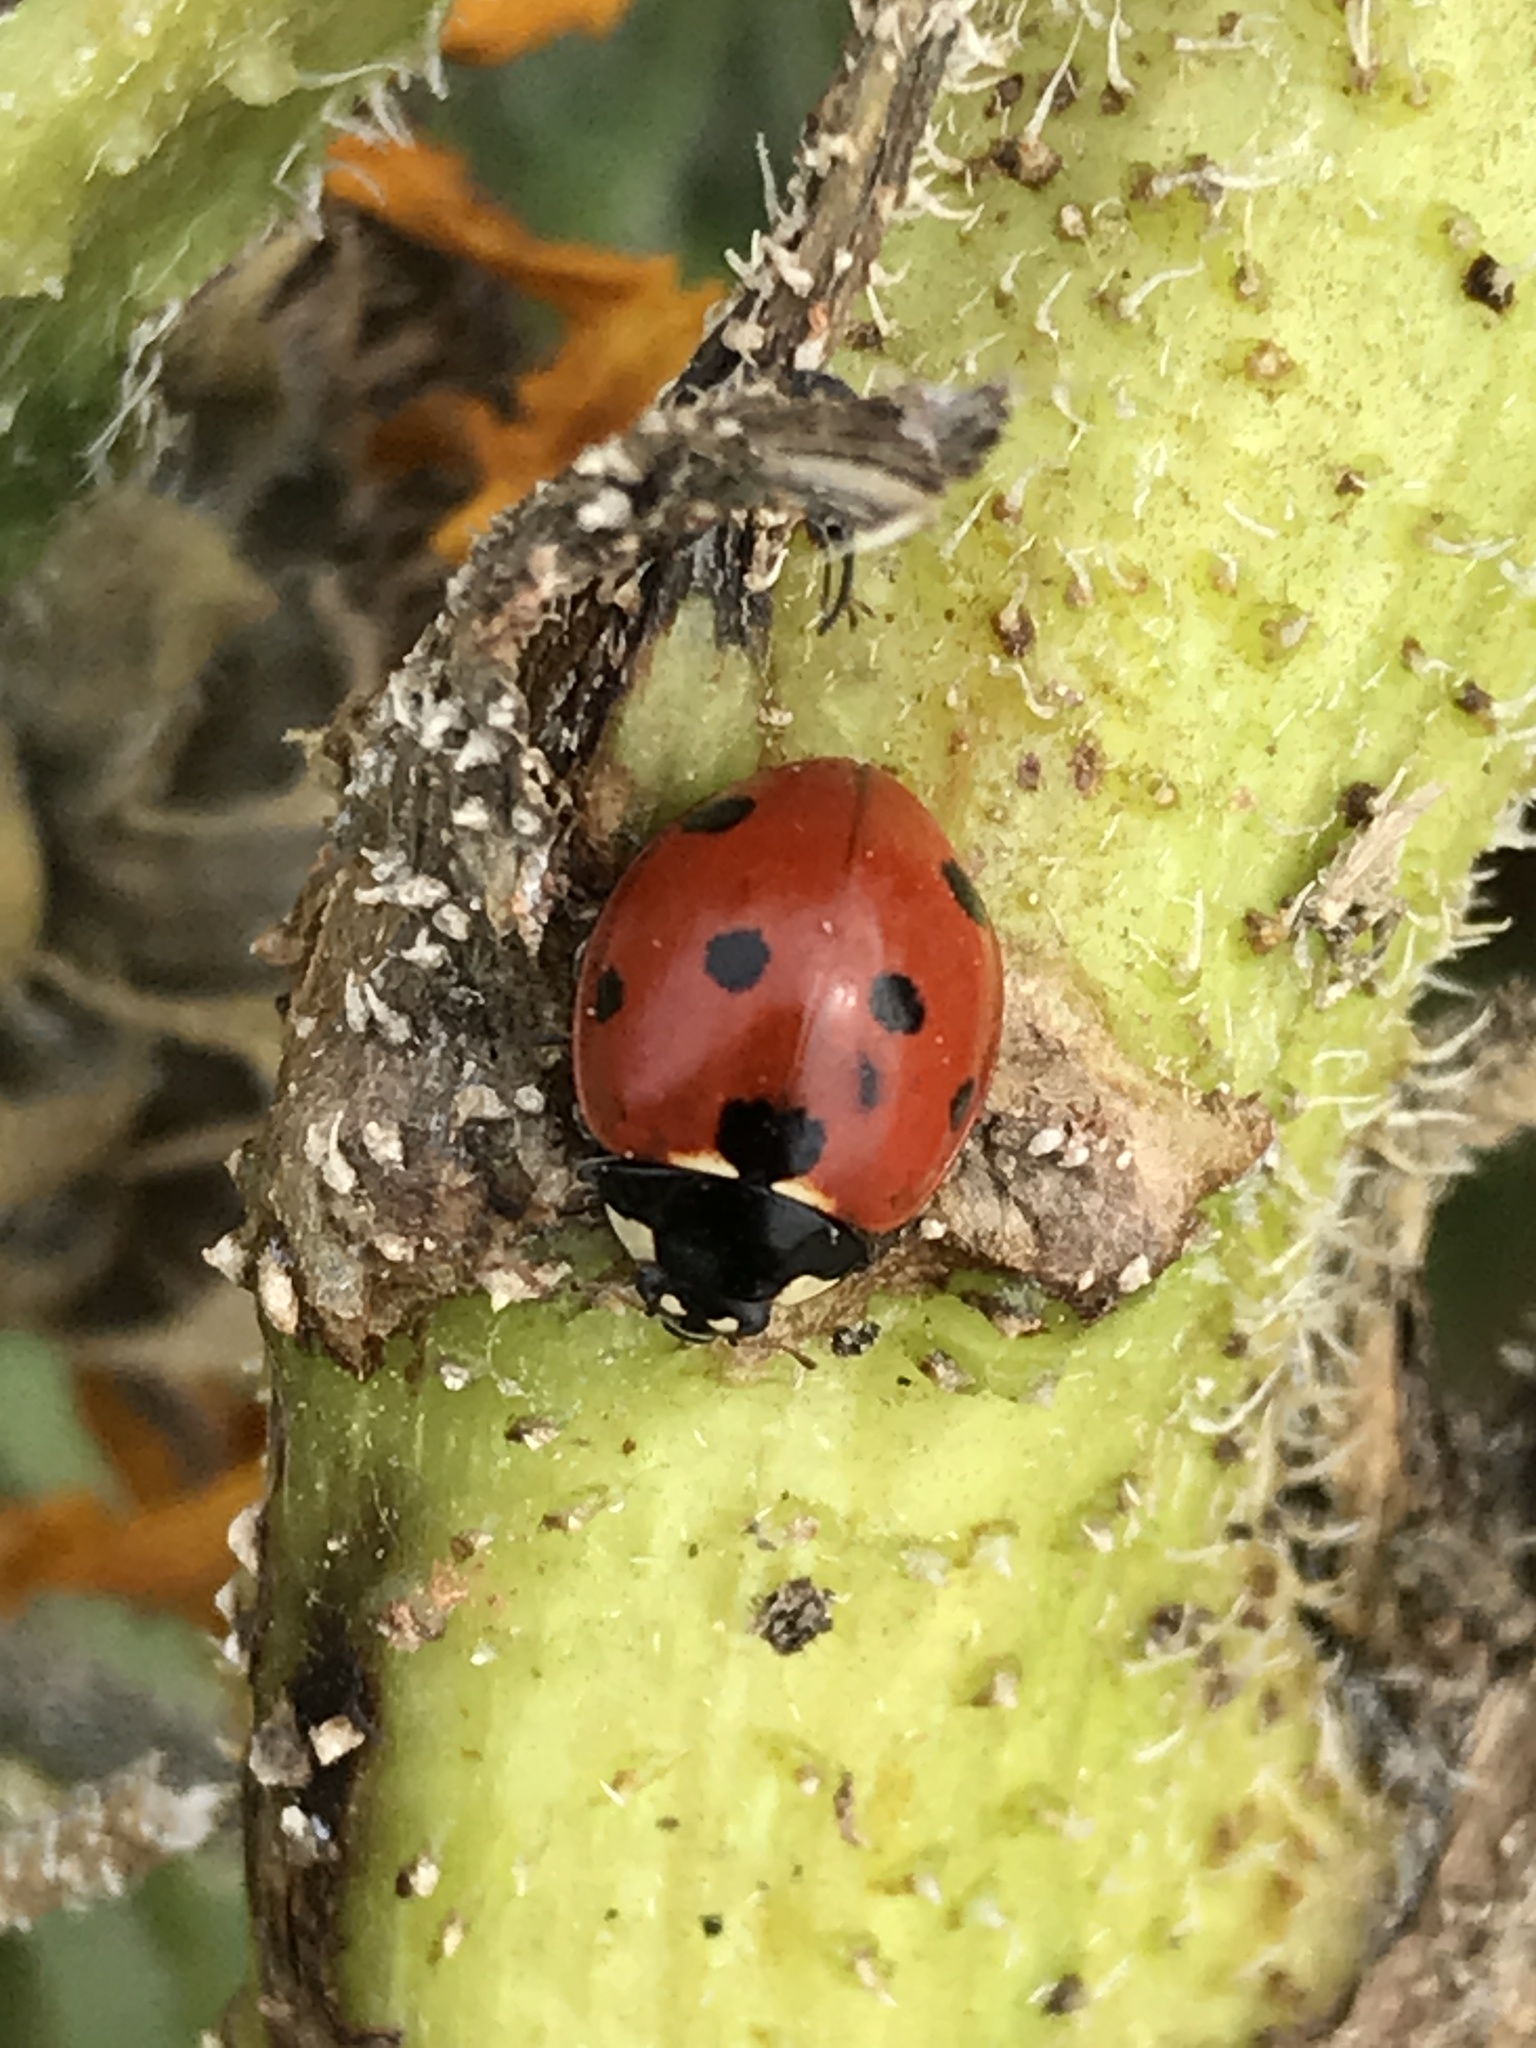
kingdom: Animalia
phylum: Arthropoda
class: Insecta
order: Coleoptera
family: Coccinellidae
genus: Coccinella
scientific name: Coccinella septempunctata
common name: Sevenspotted lady beetle
